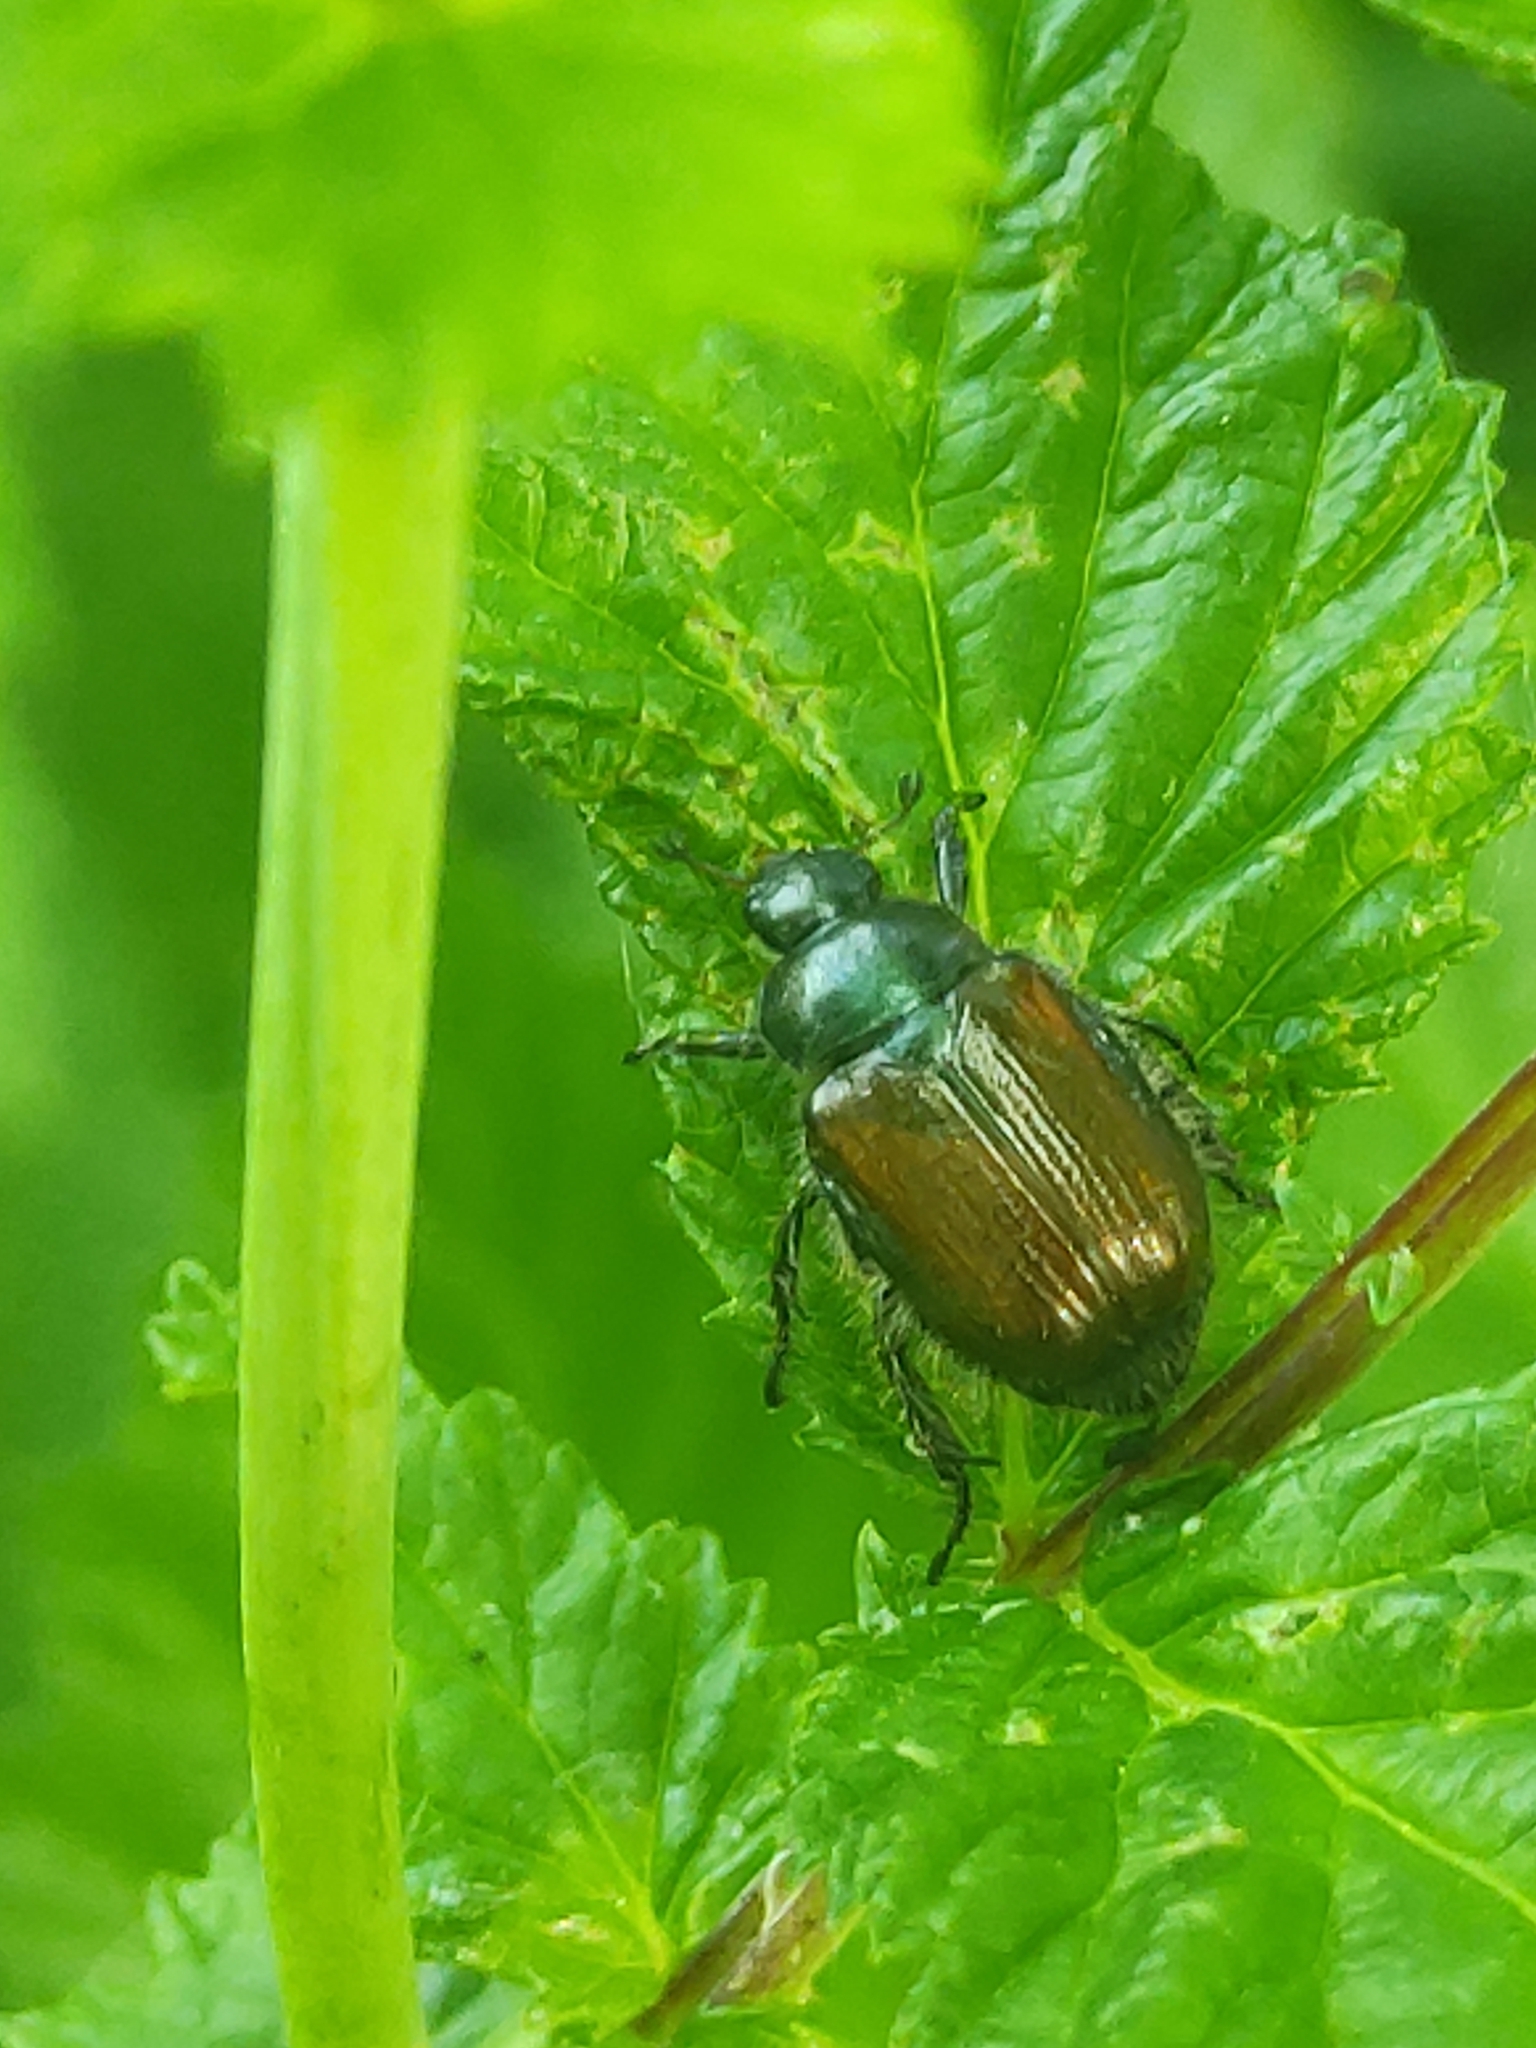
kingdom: Animalia
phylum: Arthropoda
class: Insecta
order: Coleoptera
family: Scarabaeidae
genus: Phyllopertha
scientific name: Phyllopertha horticola
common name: Garden chafer
